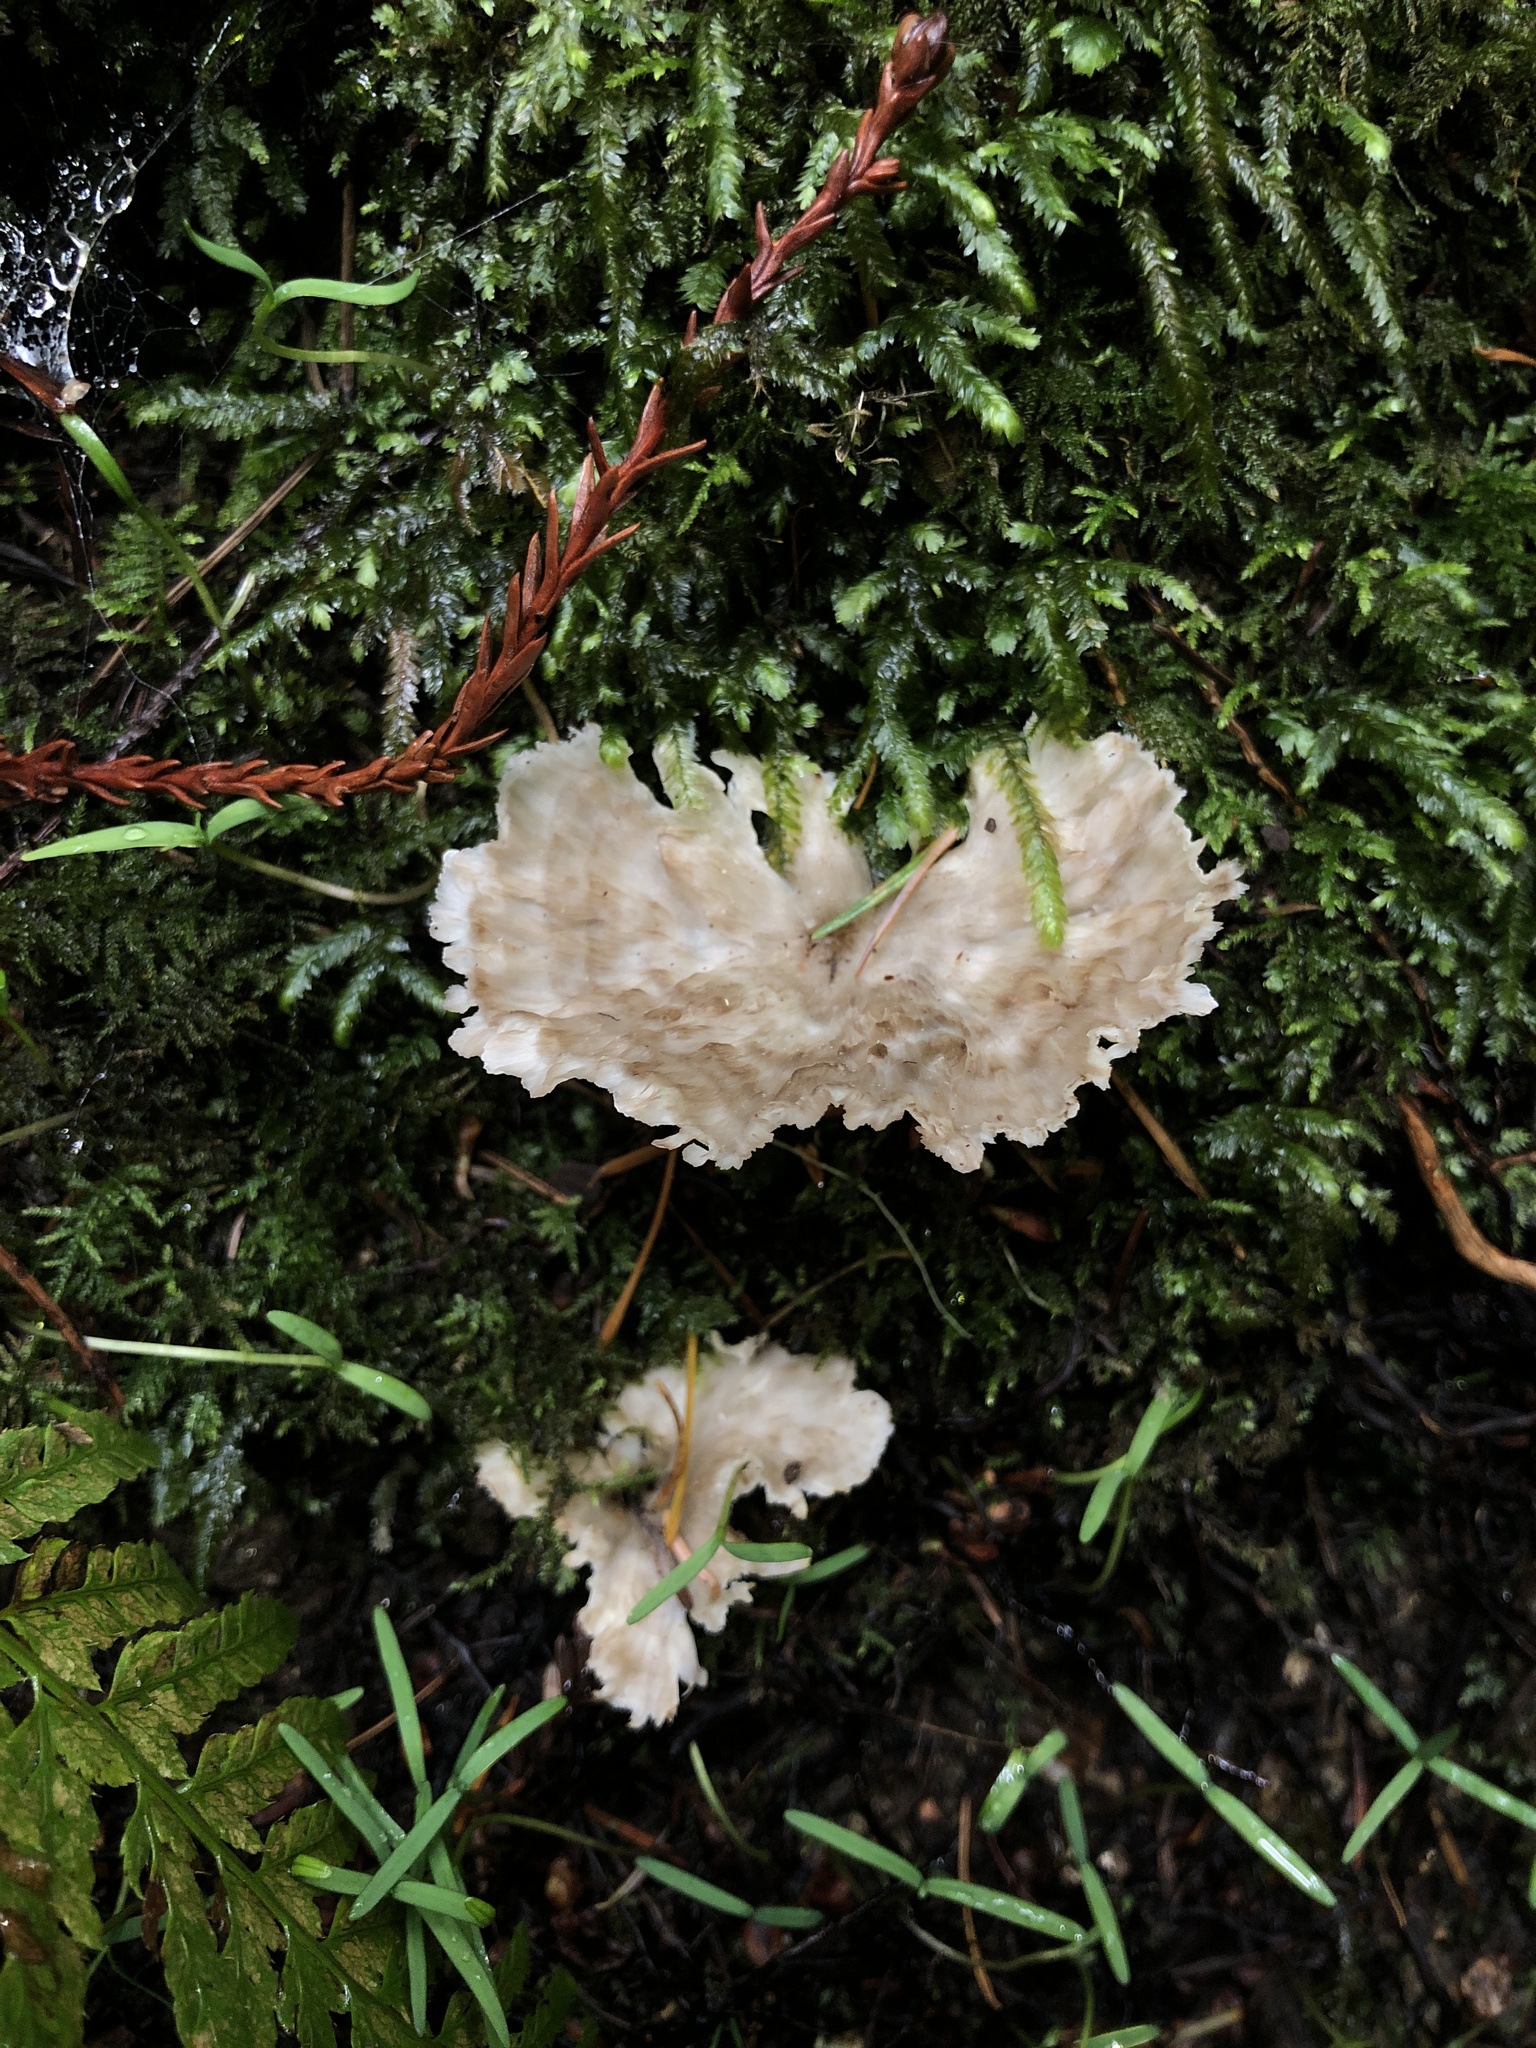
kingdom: Fungi
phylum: Basidiomycota
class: Agaricomycetes
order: Hymenochaetales
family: Rickenellaceae
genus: Cotylidia
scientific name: Cotylidia diaphana
